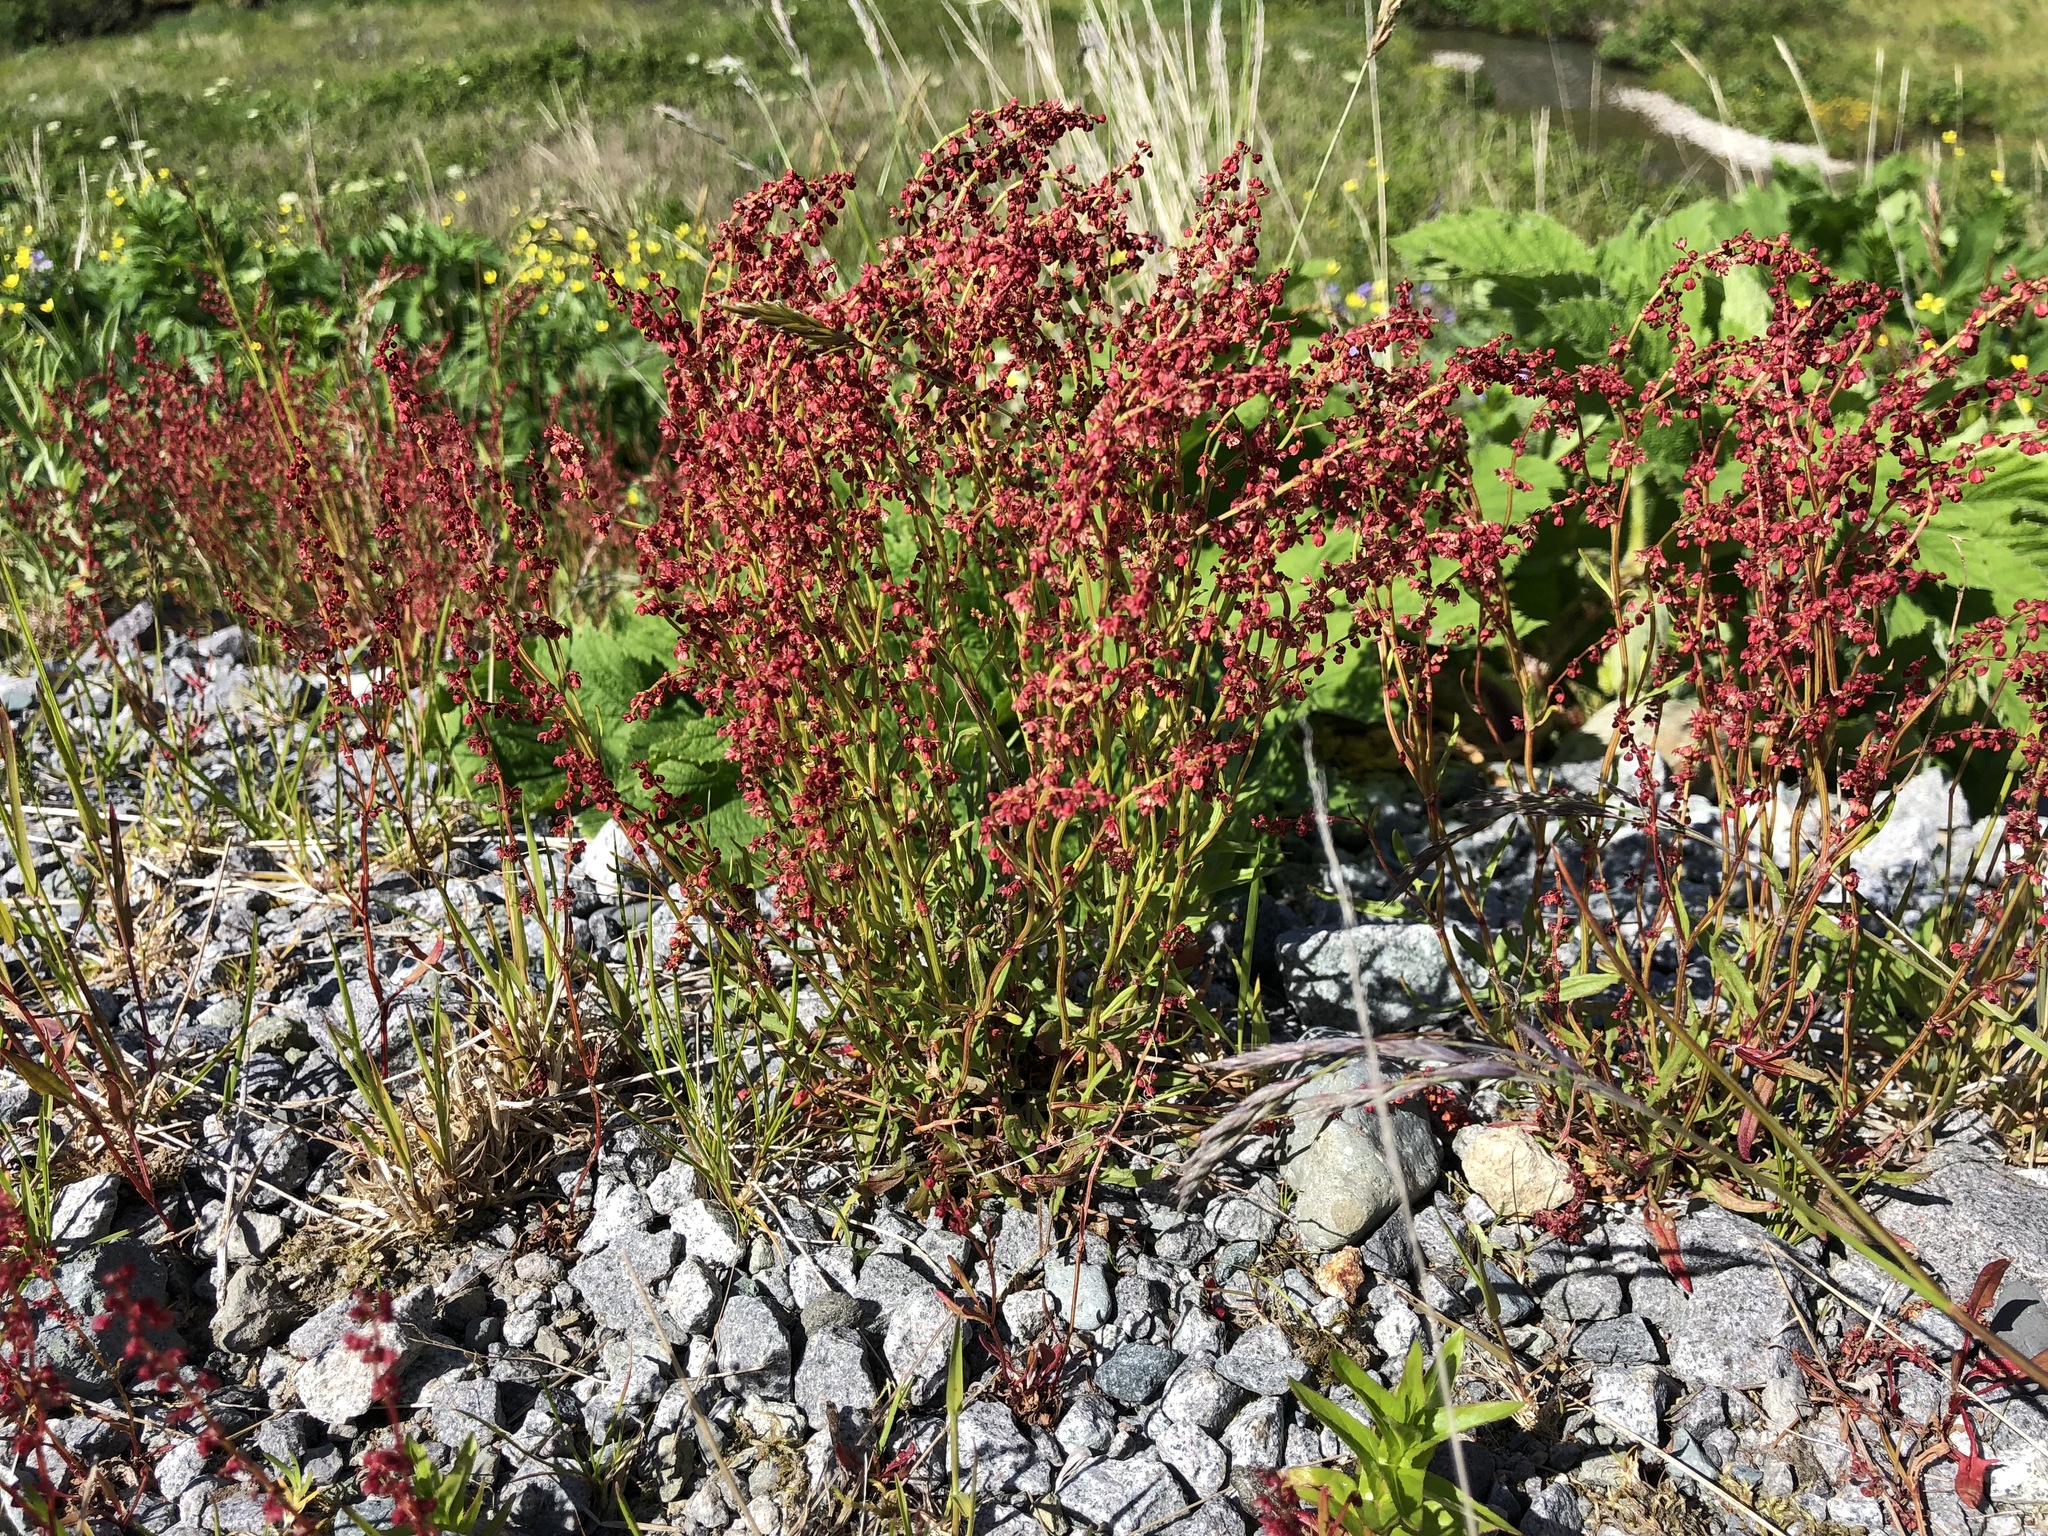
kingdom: Plantae
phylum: Tracheophyta
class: Magnoliopsida
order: Caryophyllales
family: Polygonaceae
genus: Rumex
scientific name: Rumex acetosella
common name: Common sheep sorrel
